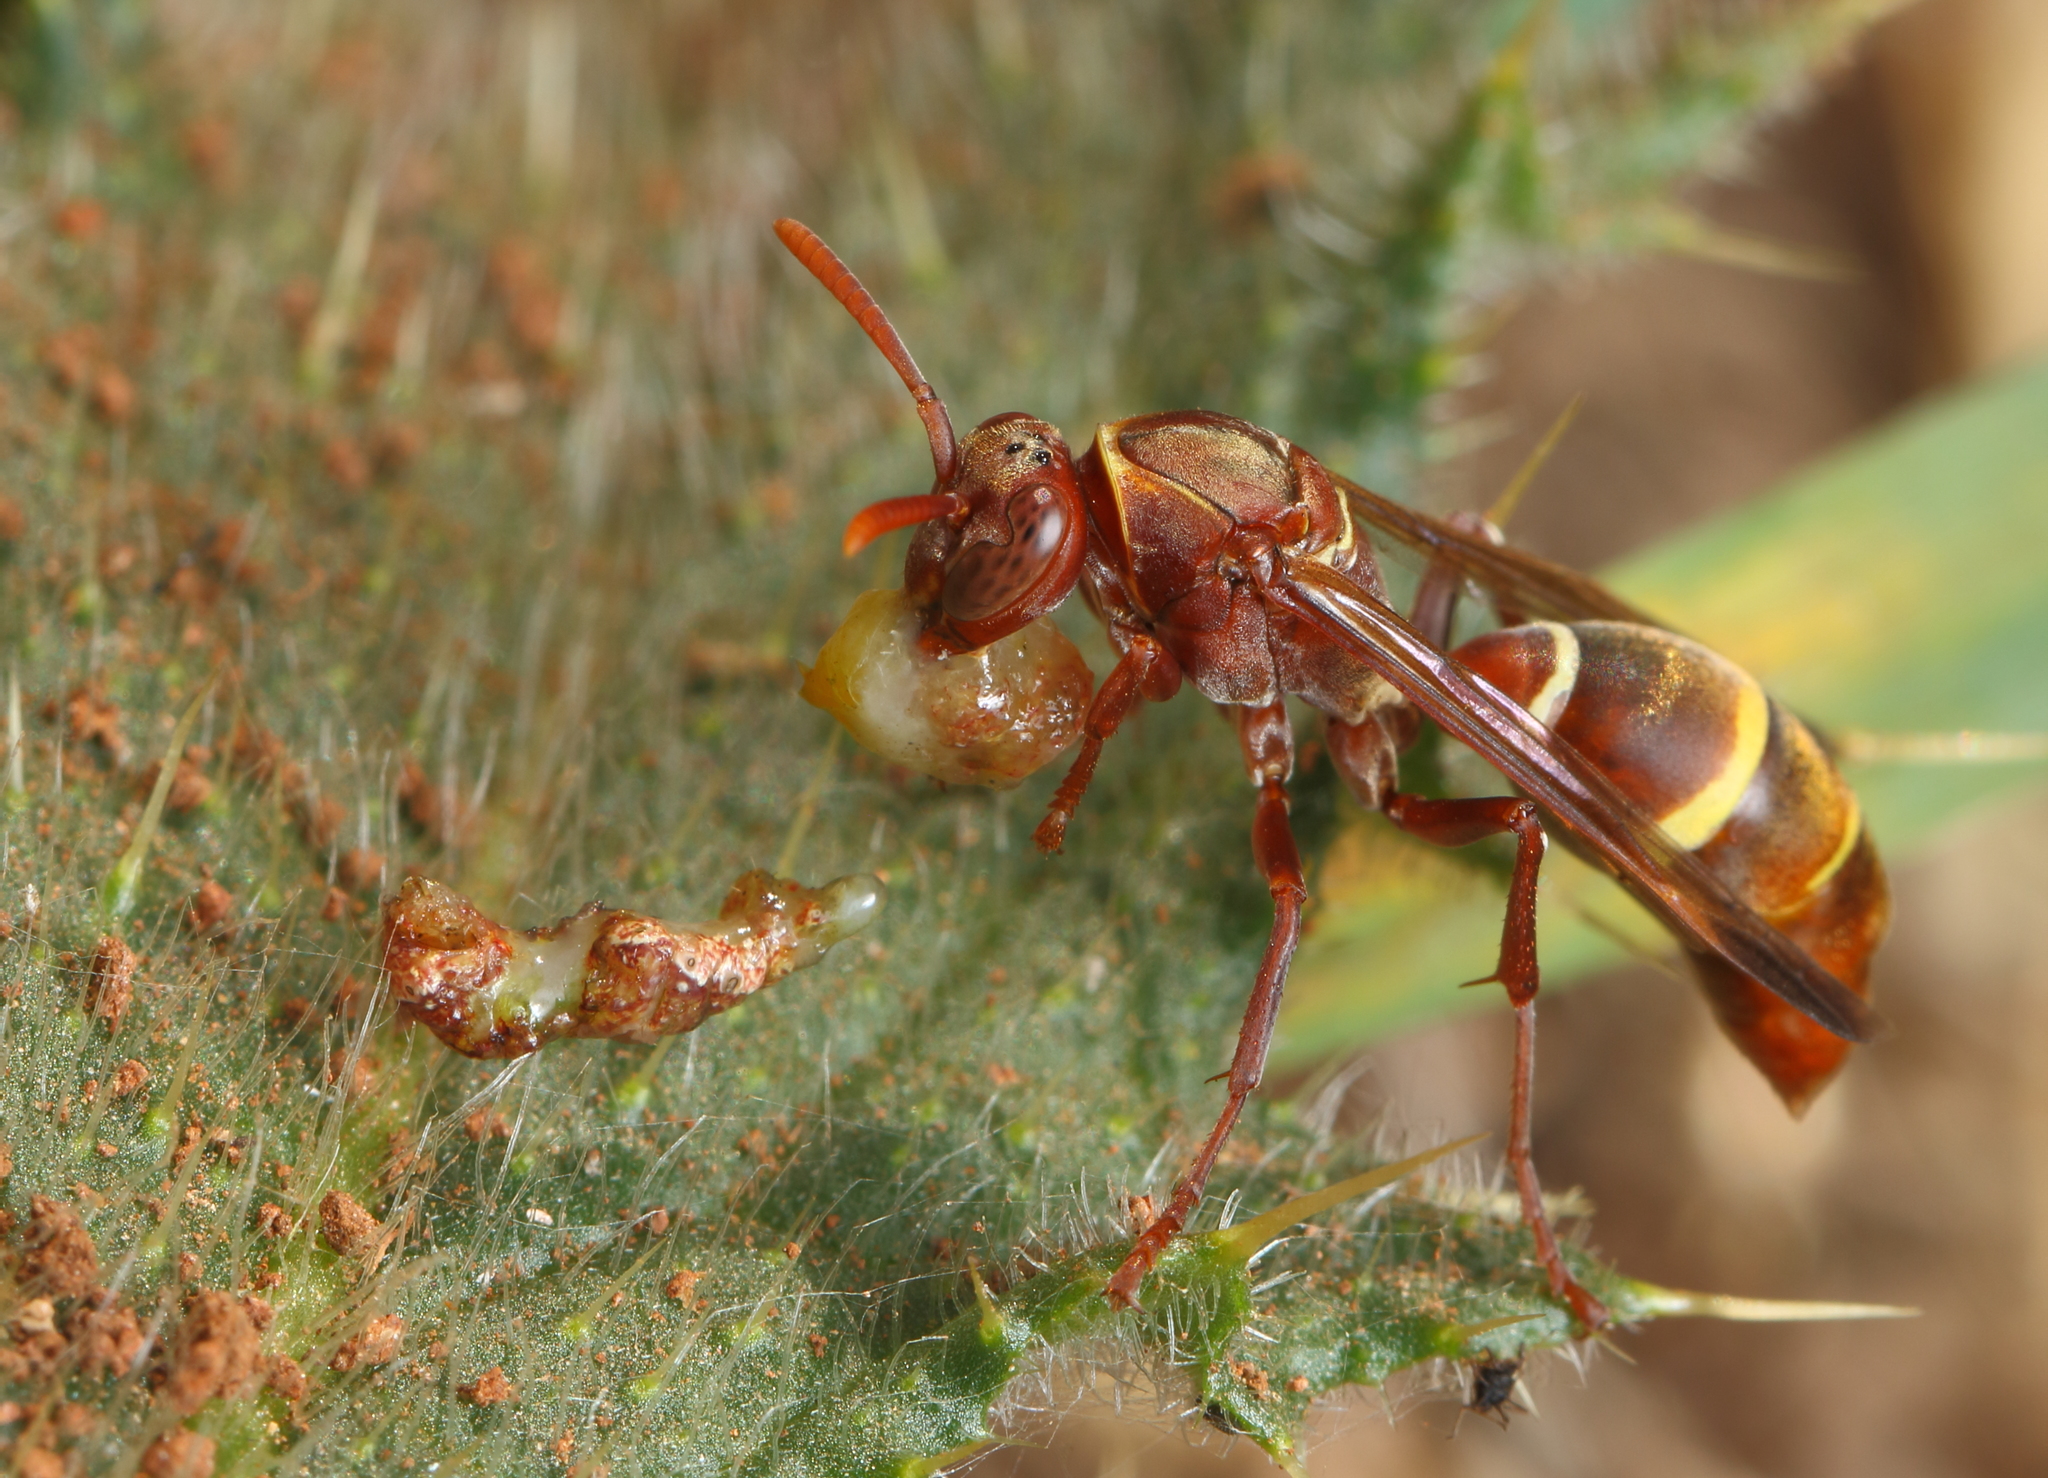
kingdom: Animalia
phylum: Arthropoda
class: Insecta
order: Hymenoptera
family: Eumenidae
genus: Polistes
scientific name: Polistes badius
